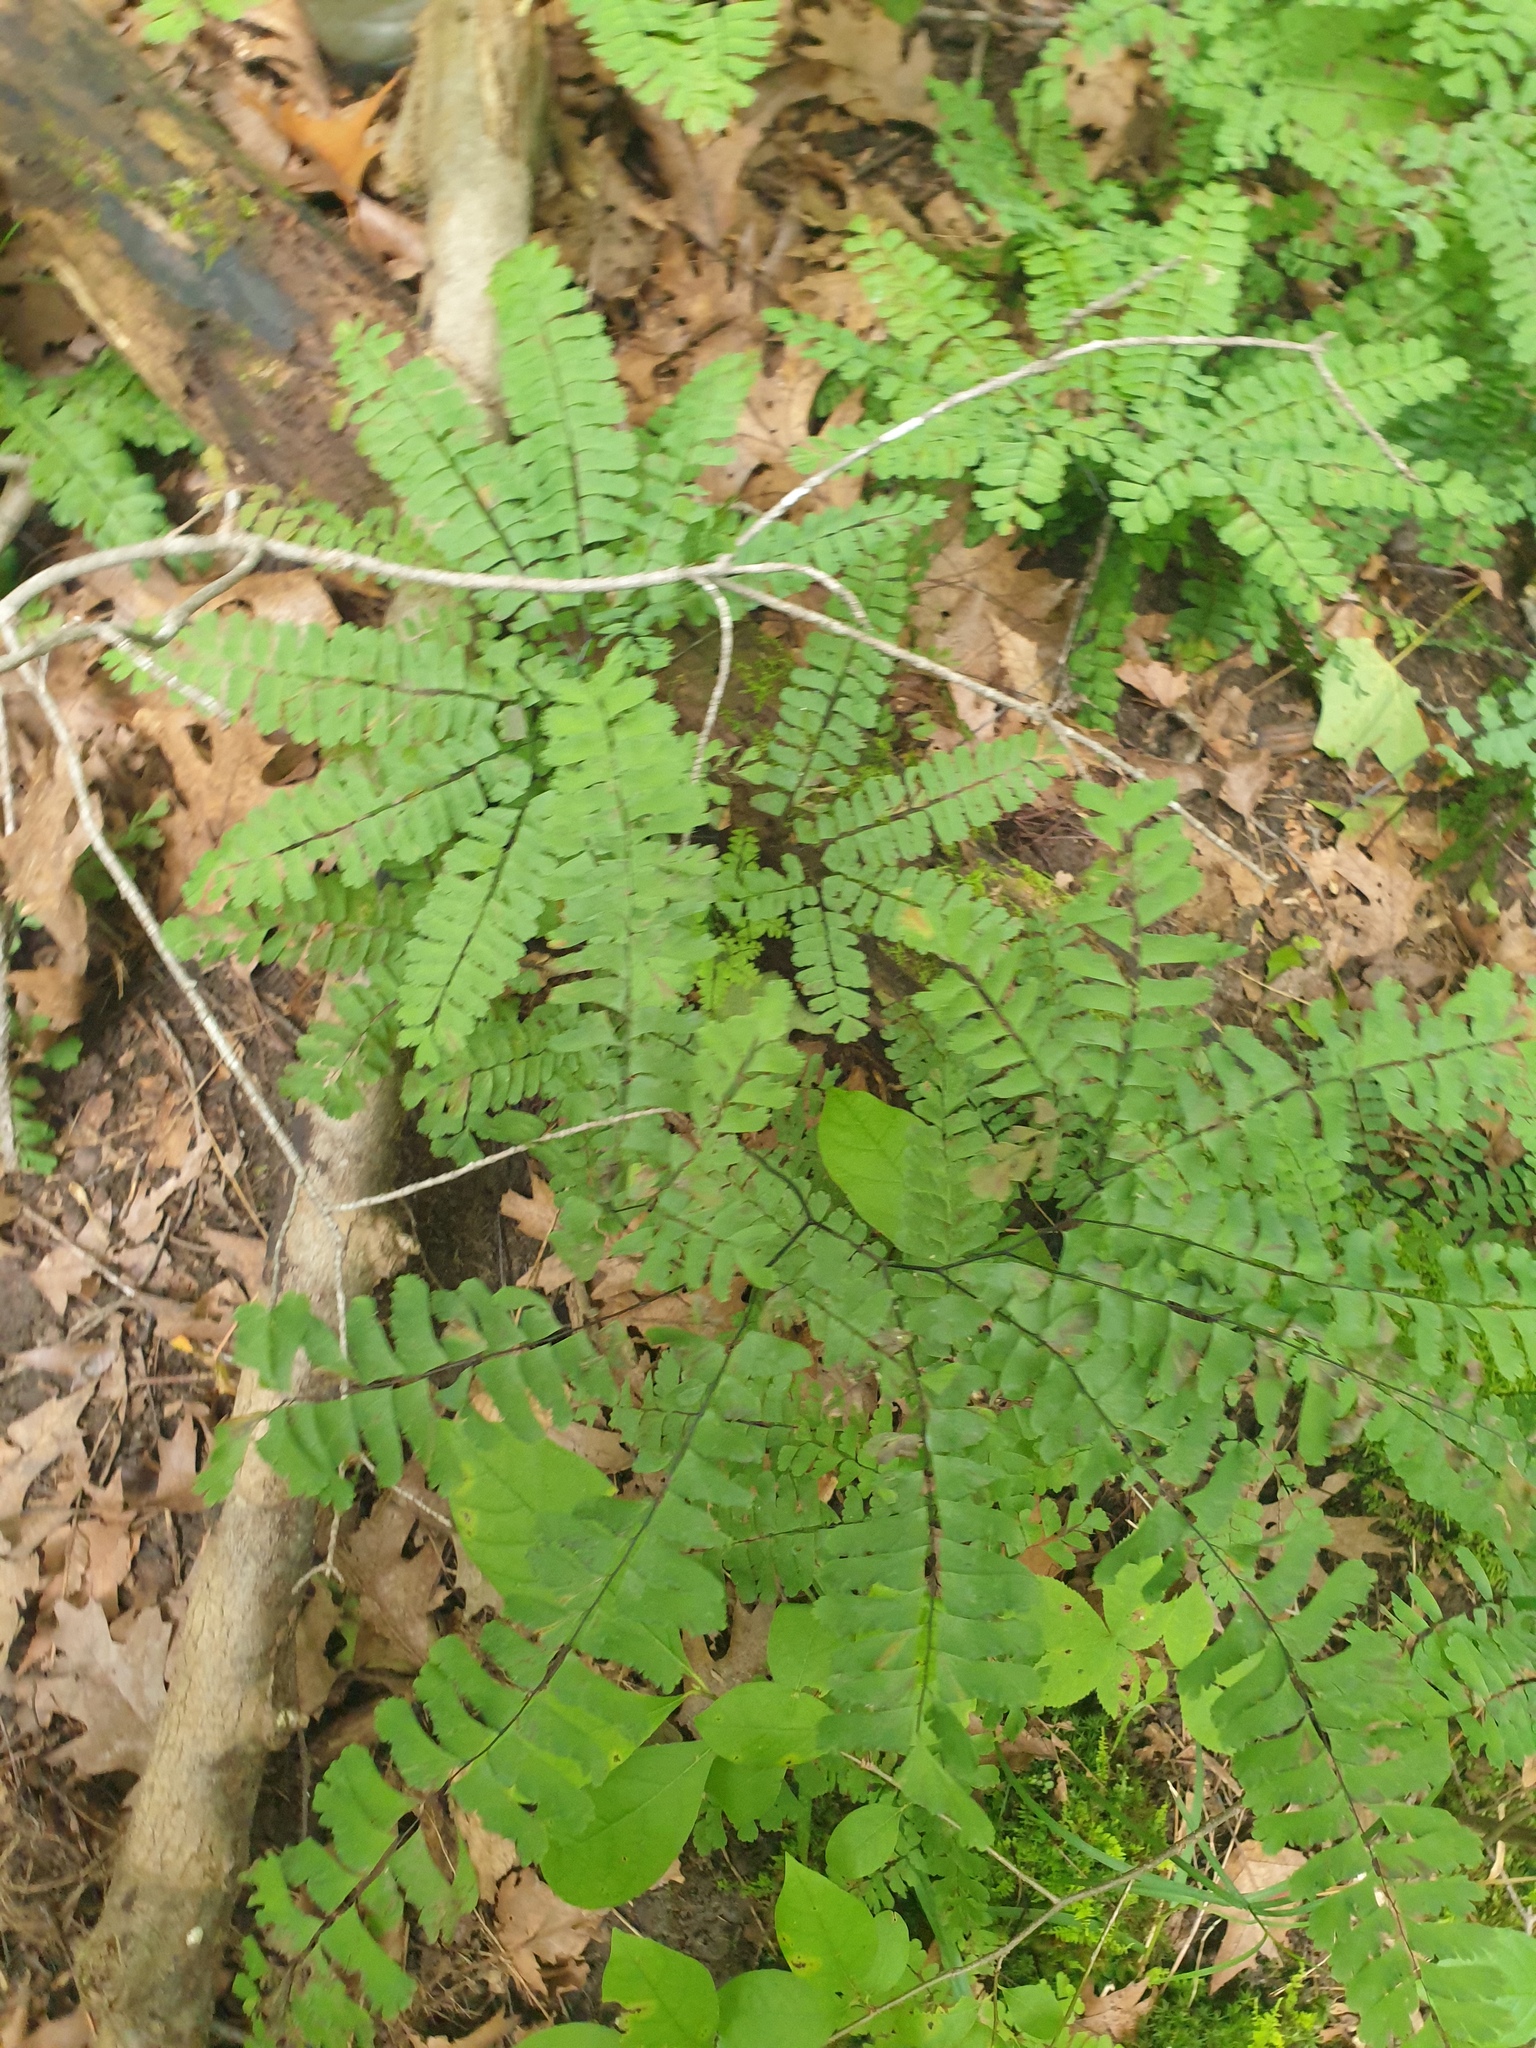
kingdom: Plantae
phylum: Tracheophyta
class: Polypodiopsida
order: Polypodiales
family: Pteridaceae
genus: Adiantum
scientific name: Adiantum pedatum
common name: Five-finger fern
